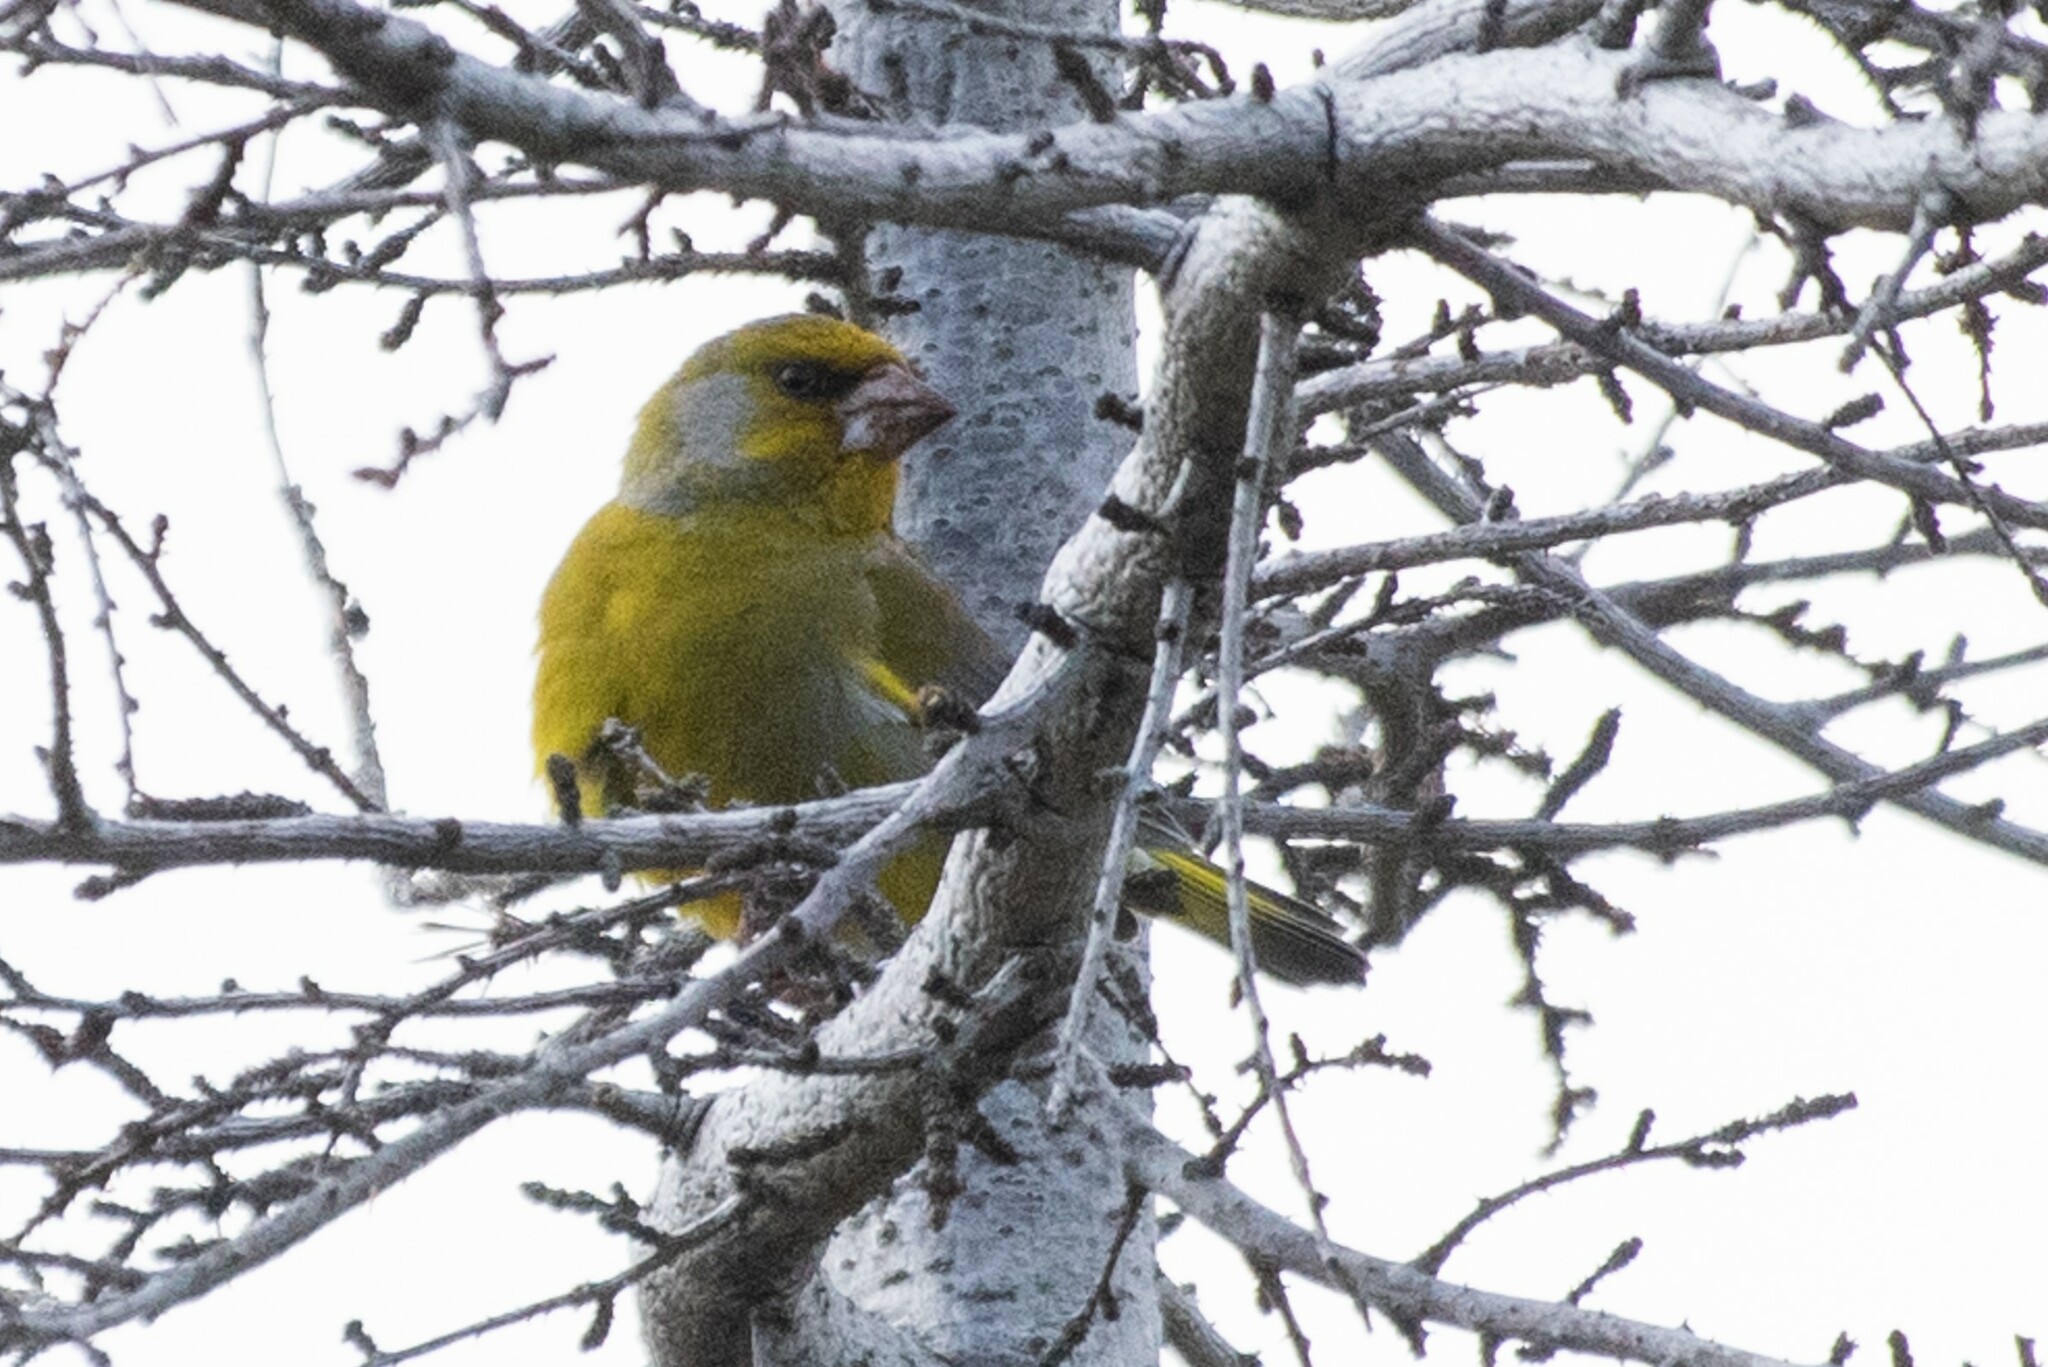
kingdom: Plantae
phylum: Tracheophyta
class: Liliopsida
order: Poales
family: Poaceae
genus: Chloris
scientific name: Chloris chloris
